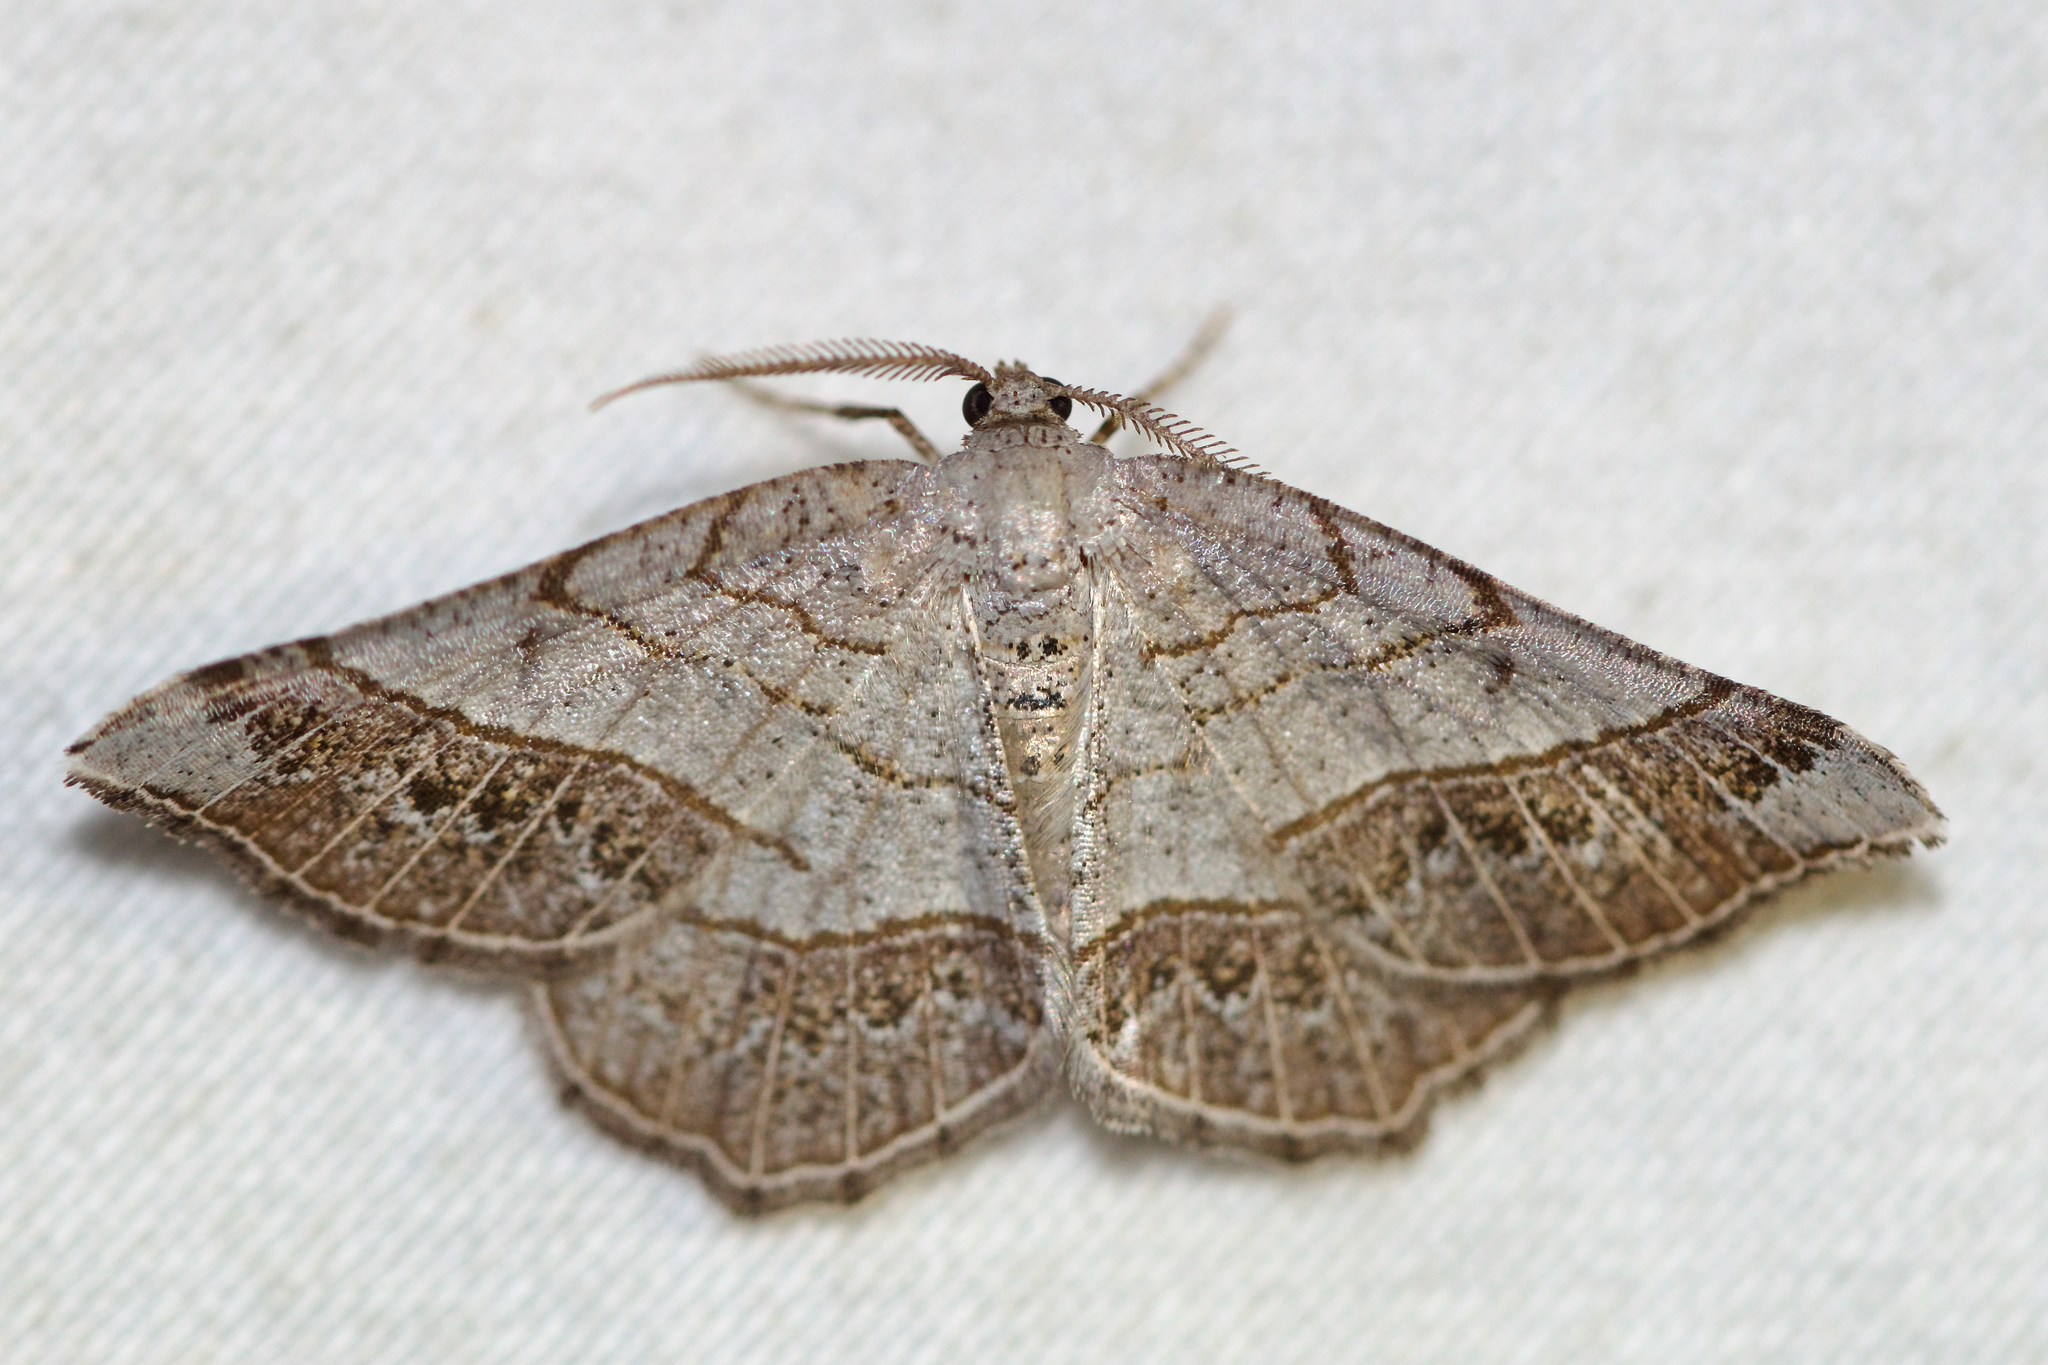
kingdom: Animalia
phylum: Arthropoda
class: Insecta
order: Lepidoptera
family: Geometridae
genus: Eumacaria
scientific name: Eumacaria madopata
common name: Brown-bordered geometer
